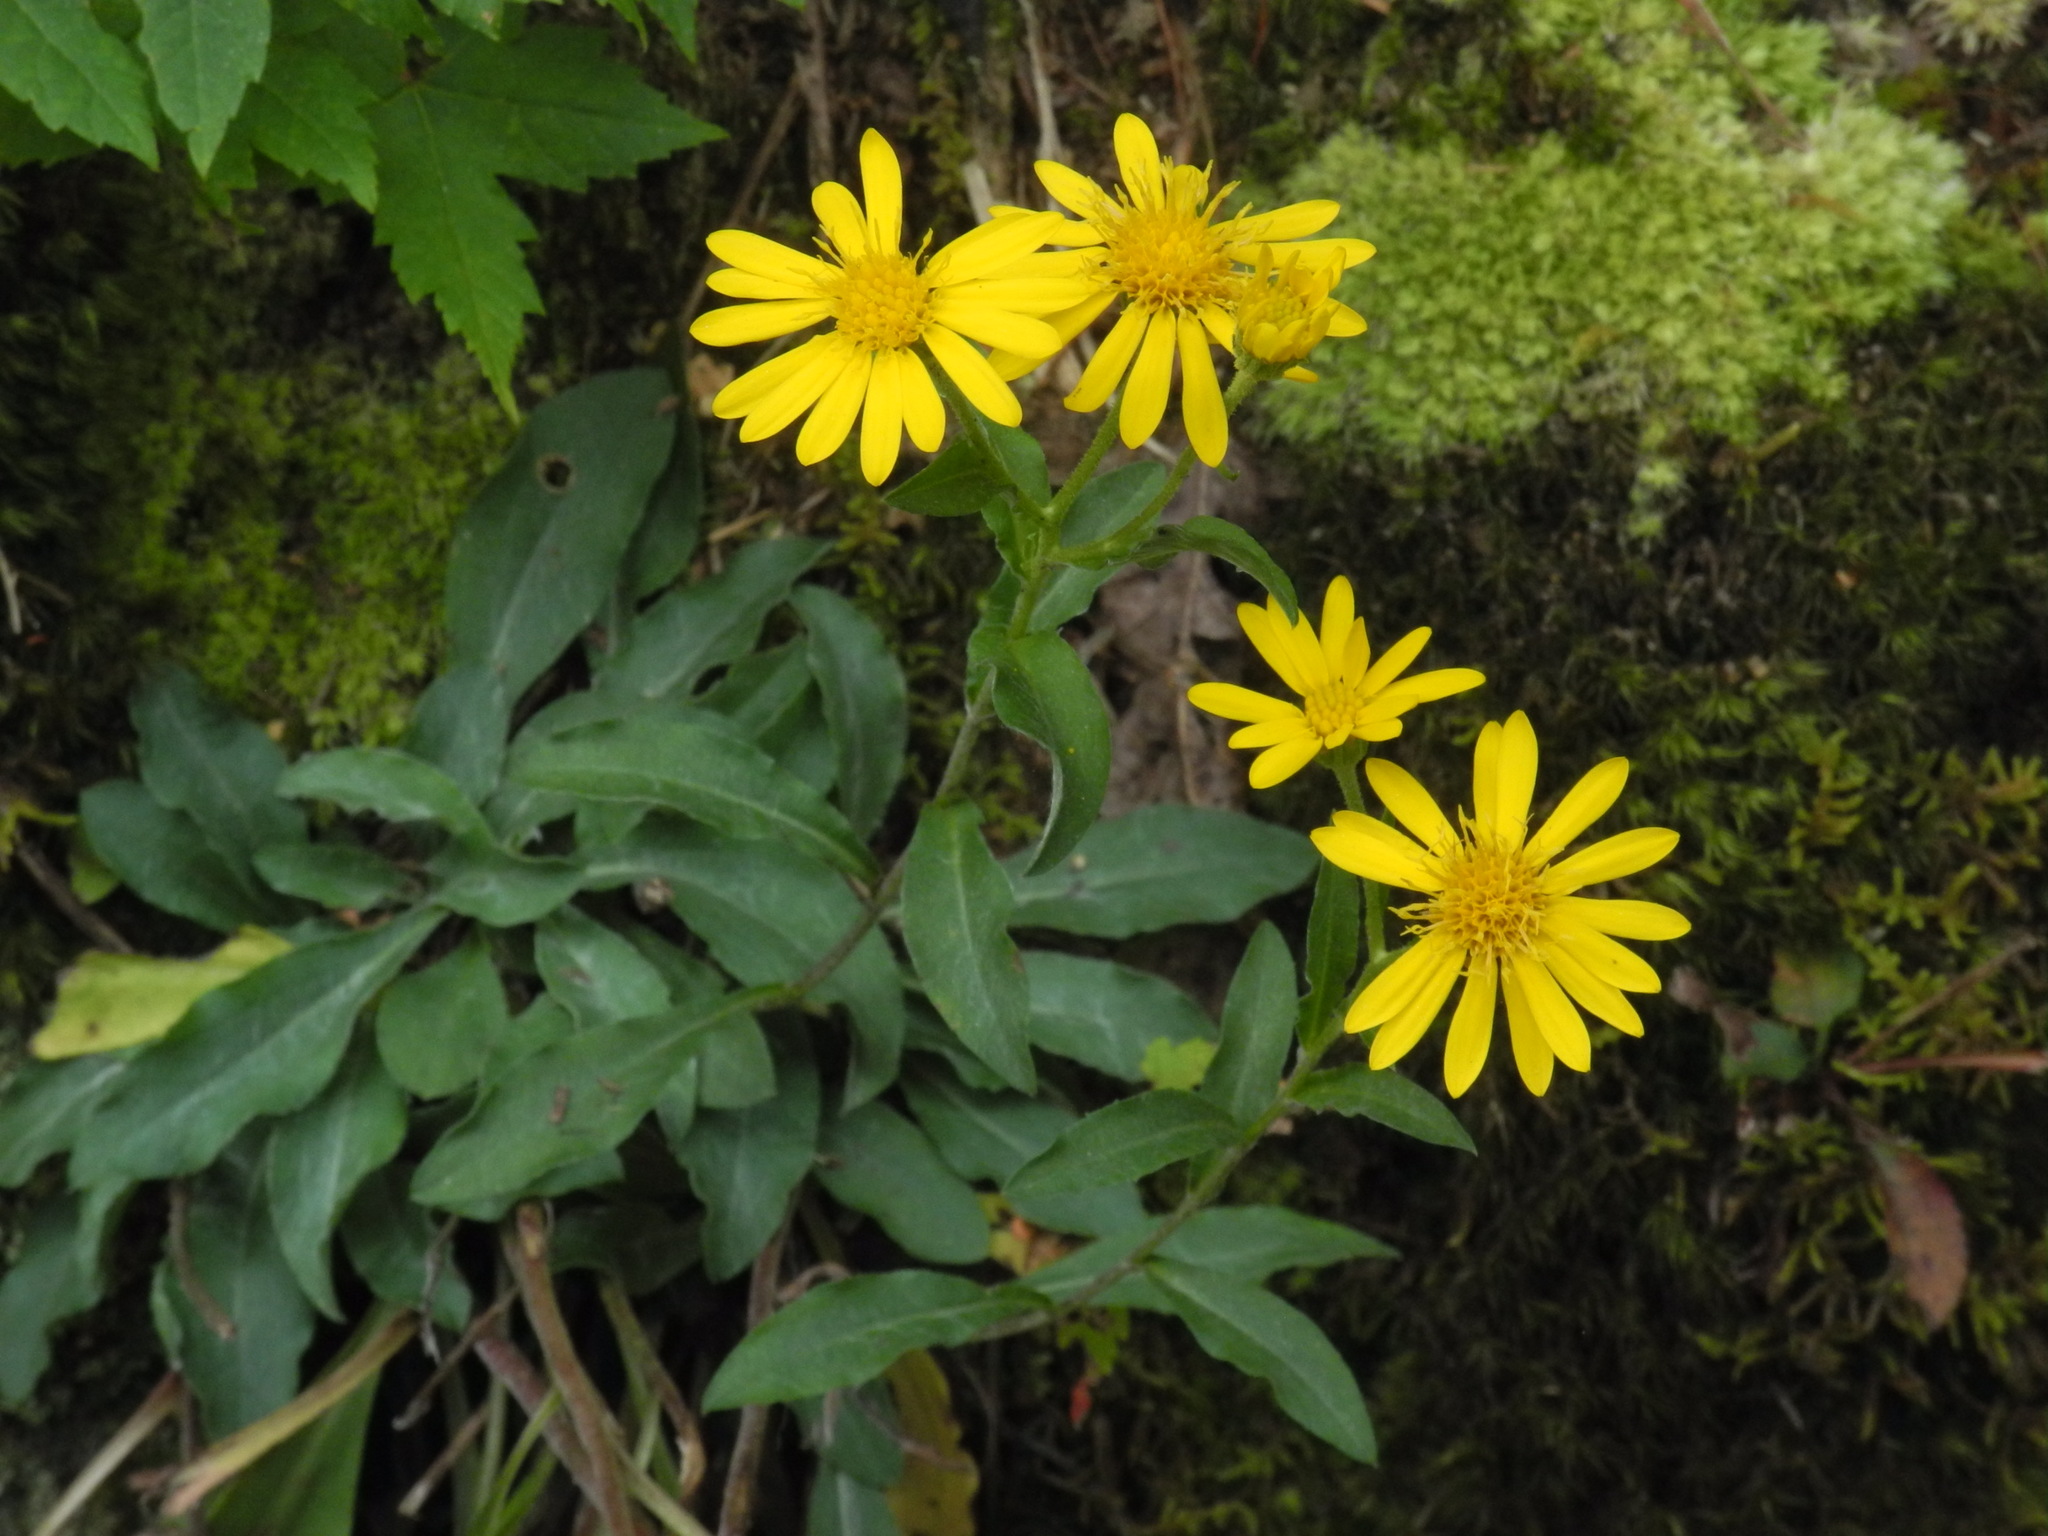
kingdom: Plantae
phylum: Tracheophyta
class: Magnoliopsida
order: Asterales
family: Asteraceae
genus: Chrysopsis
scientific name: Chrysopsis mariana
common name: Maryland golden-aster
